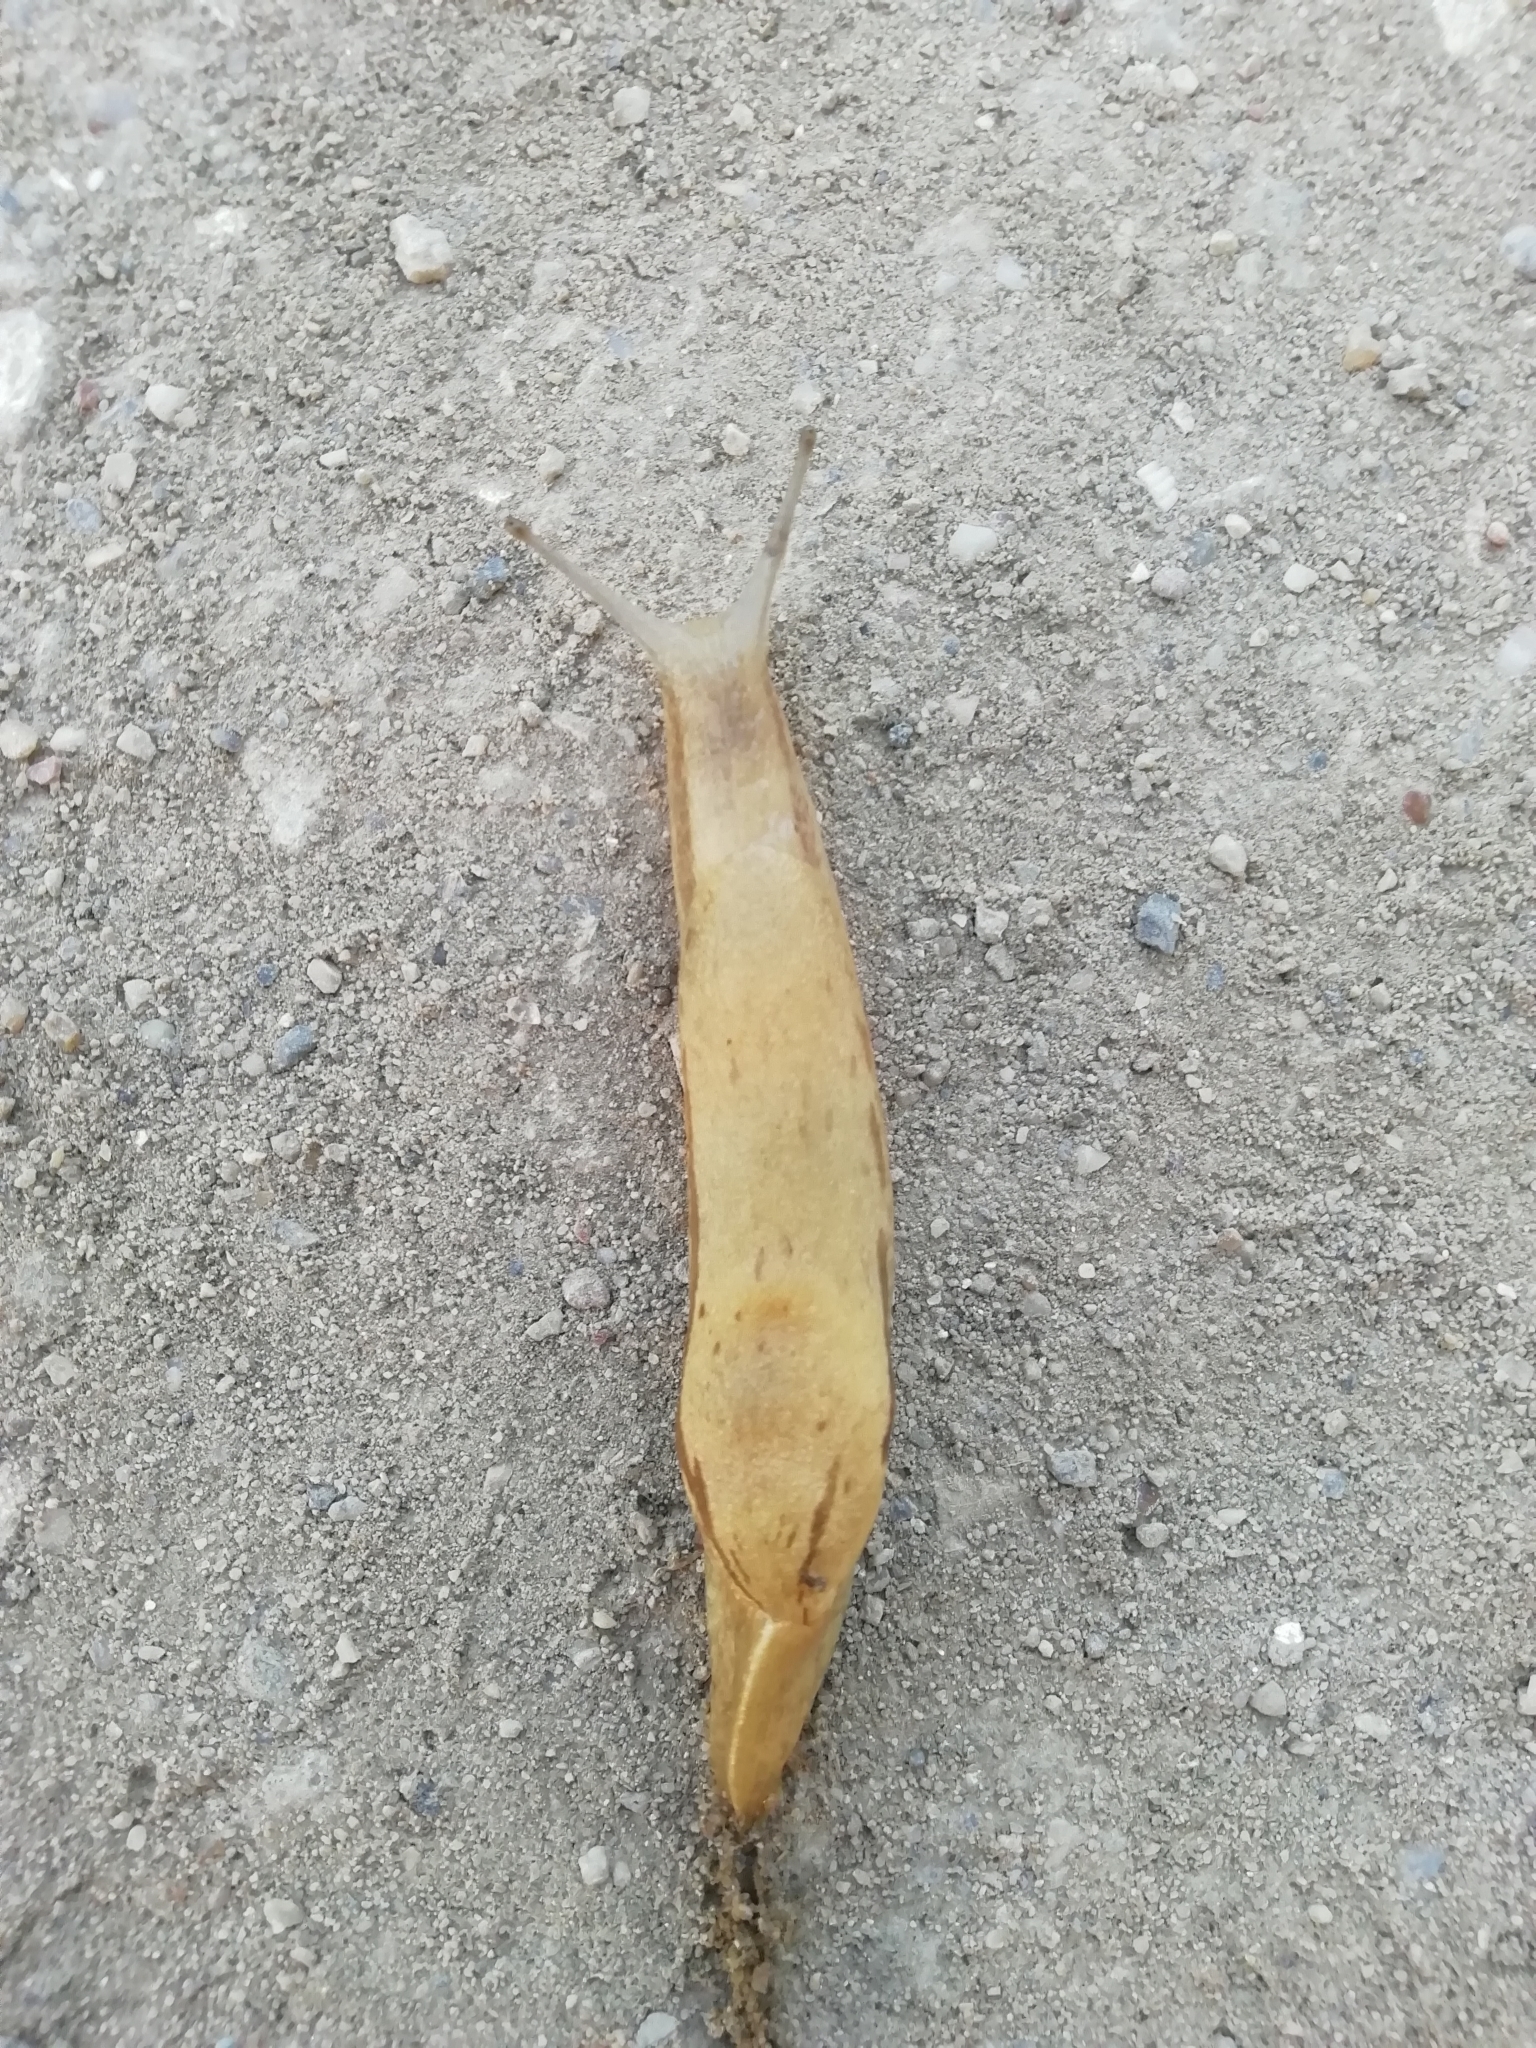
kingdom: Animalia
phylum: Mollusca
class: Gastropoda
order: Stylommatophora
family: Parmacellidae
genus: Drusia
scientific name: Drusia ibera
